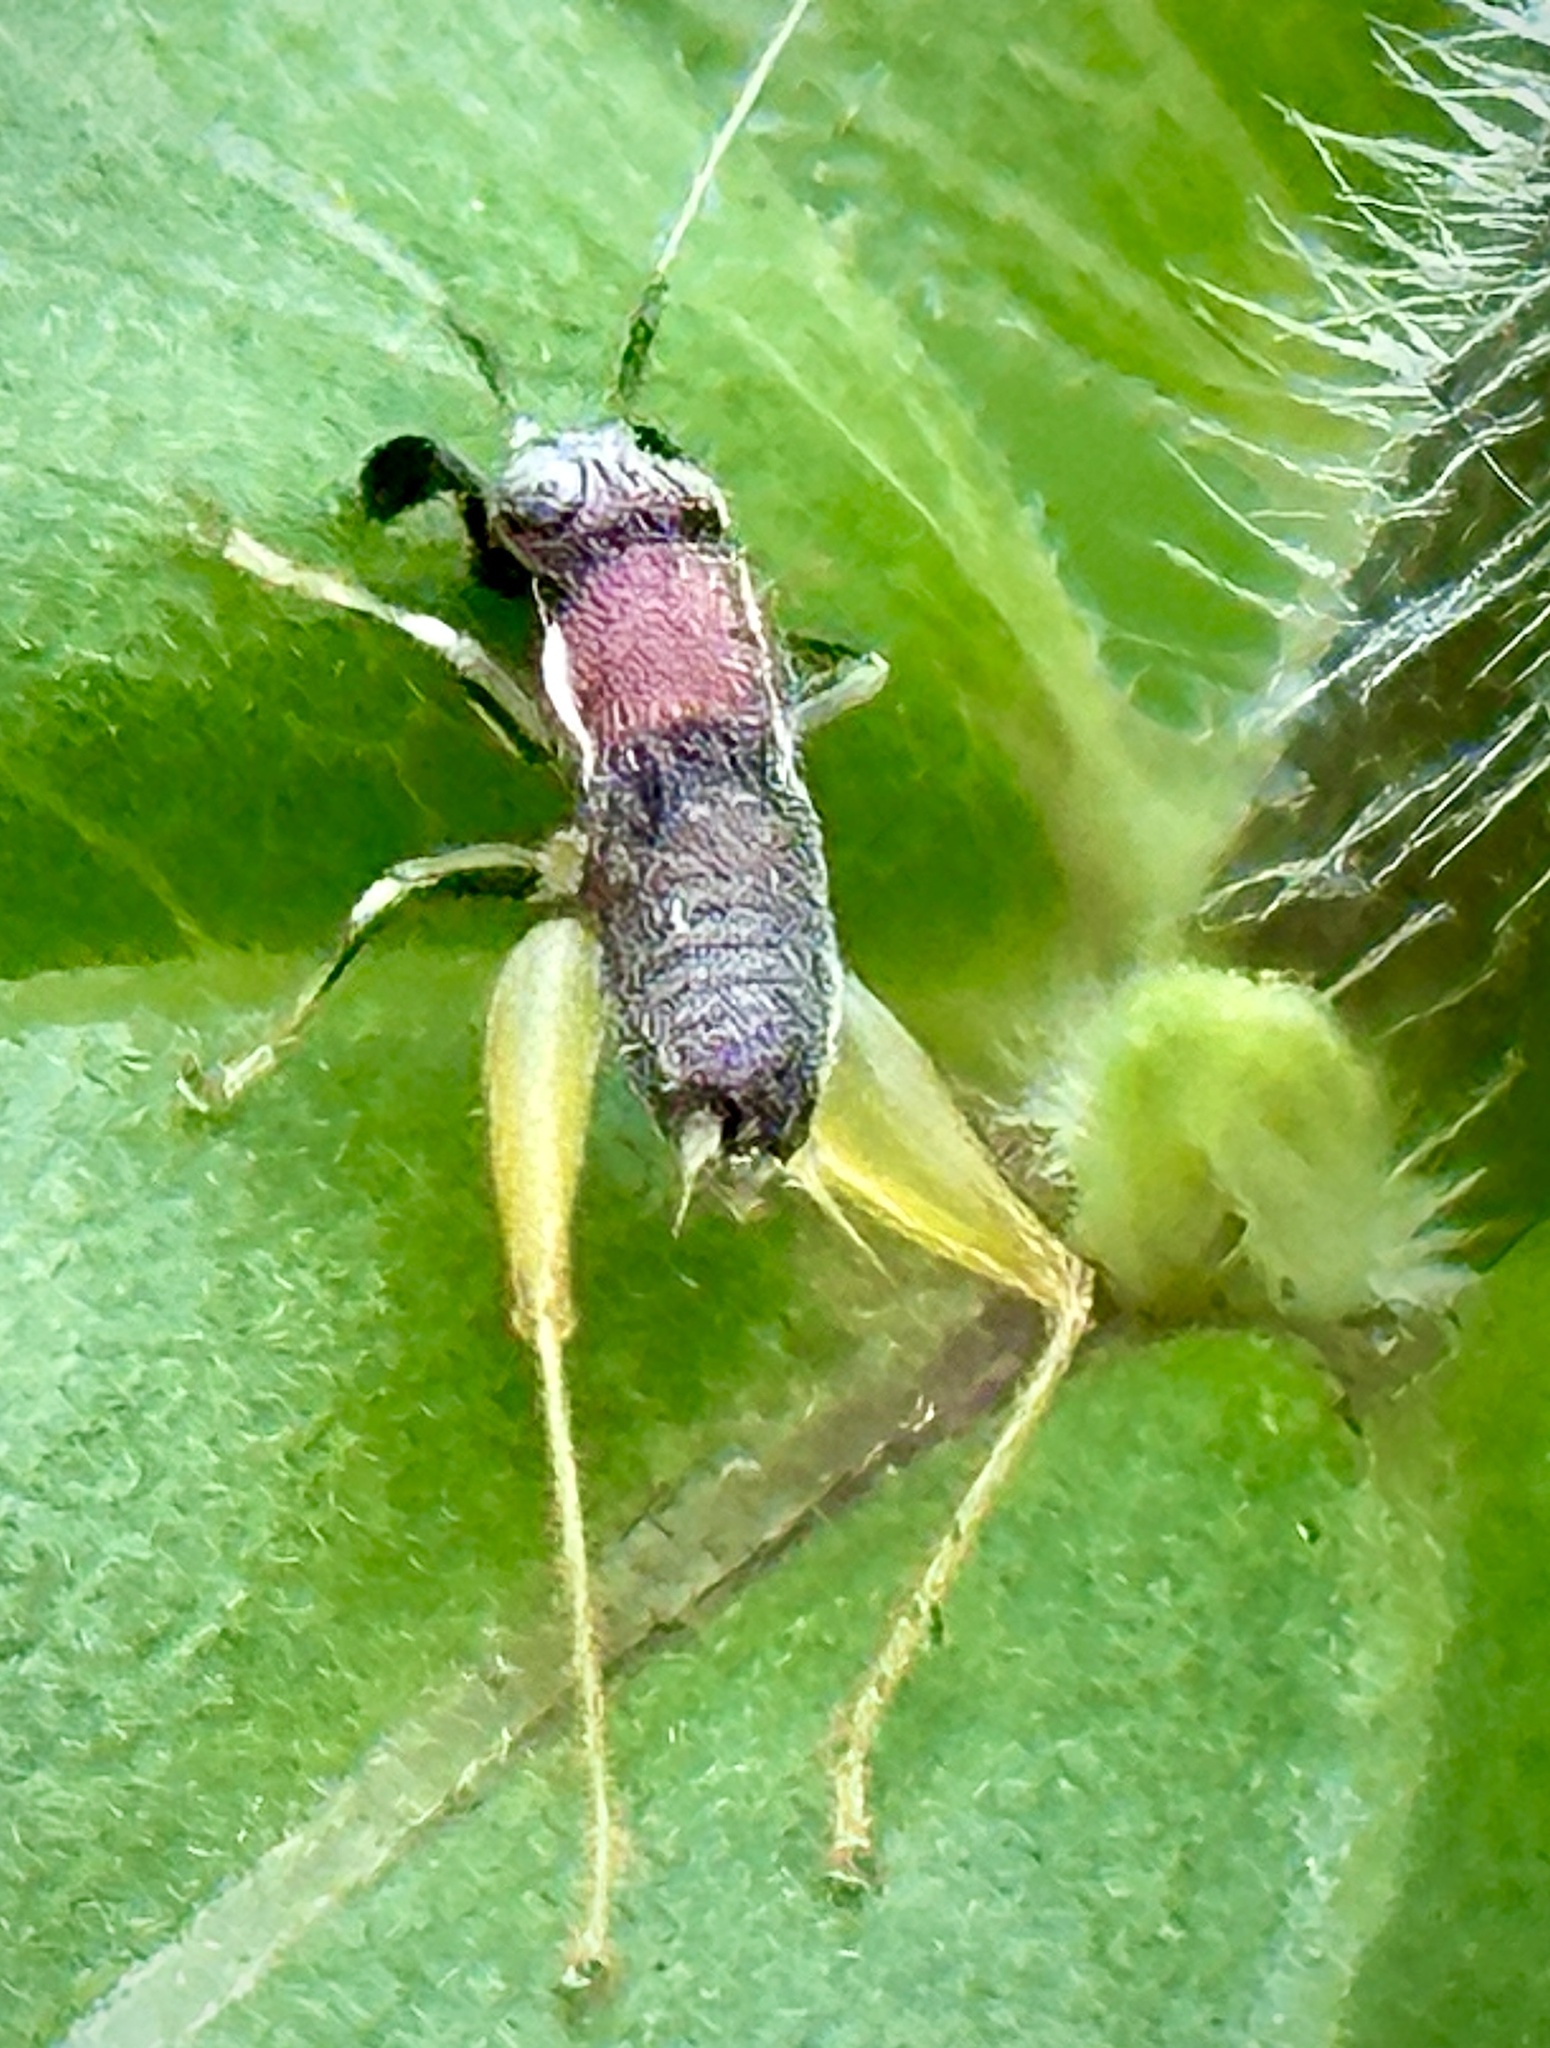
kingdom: Animalia
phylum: Arthropoda
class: Insecta
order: Orthoptera
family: Trigonidiidae
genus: Phyllopalpus
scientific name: Phyllopalpus pulchellus
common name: Handsome trig
